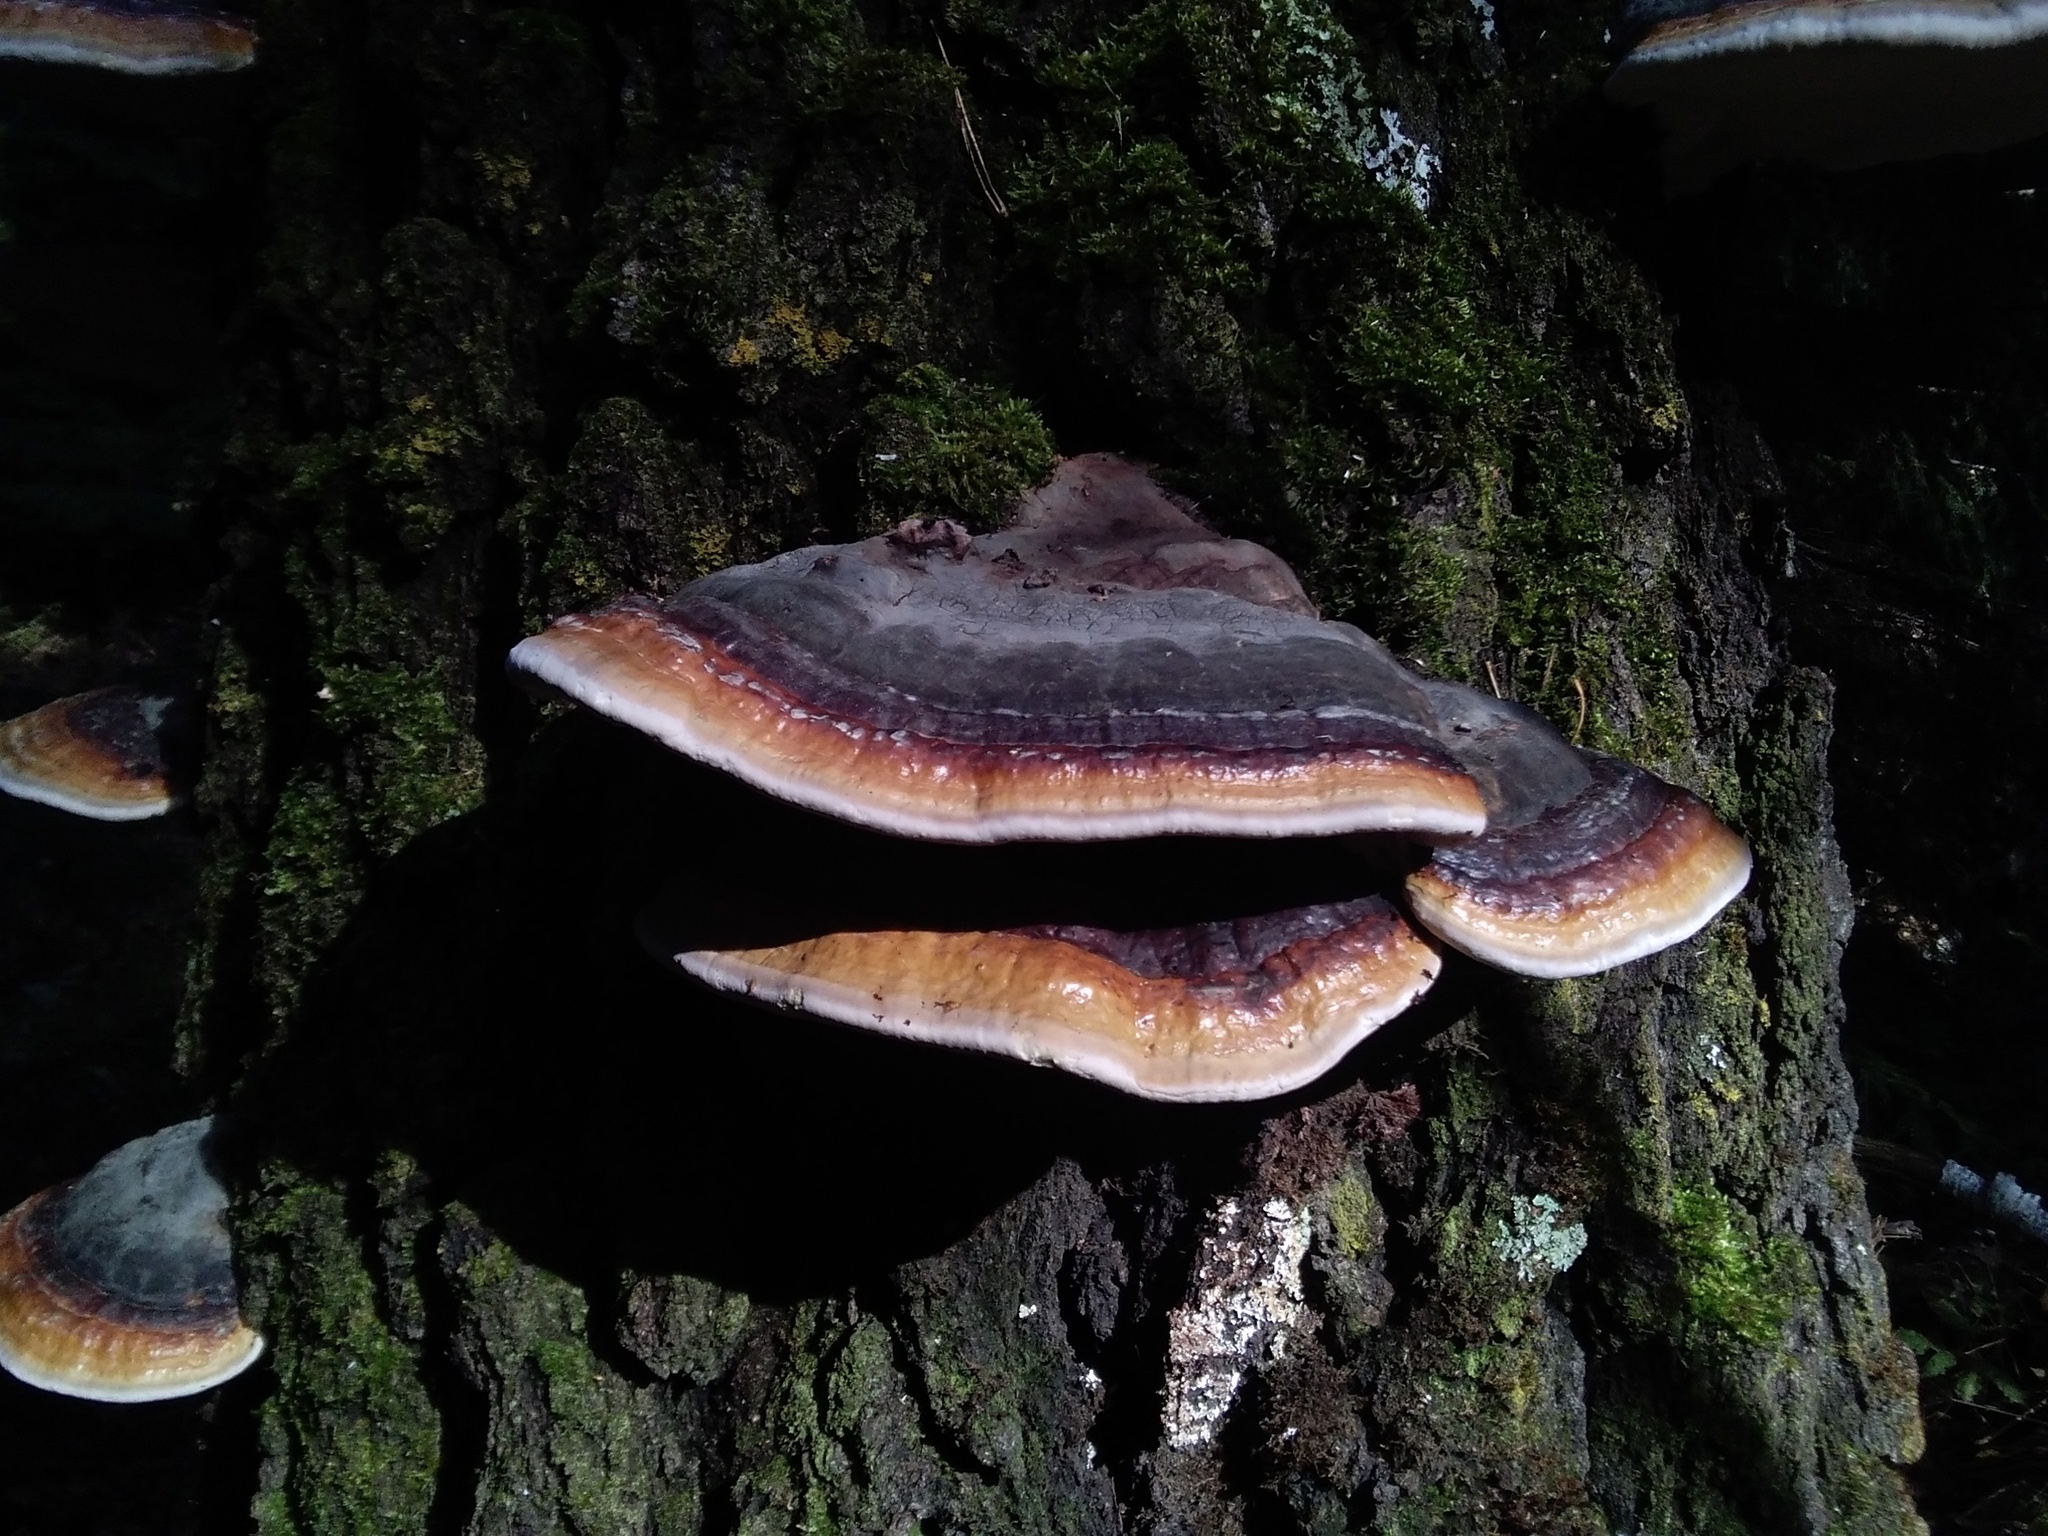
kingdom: Fungi
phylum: Basidiomycota
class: Agaricomycetes
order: Polyporales
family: Fomitopsidaceae
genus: Fomitopsis
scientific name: Fomitopsis pinicola
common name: Red-belted bracket
